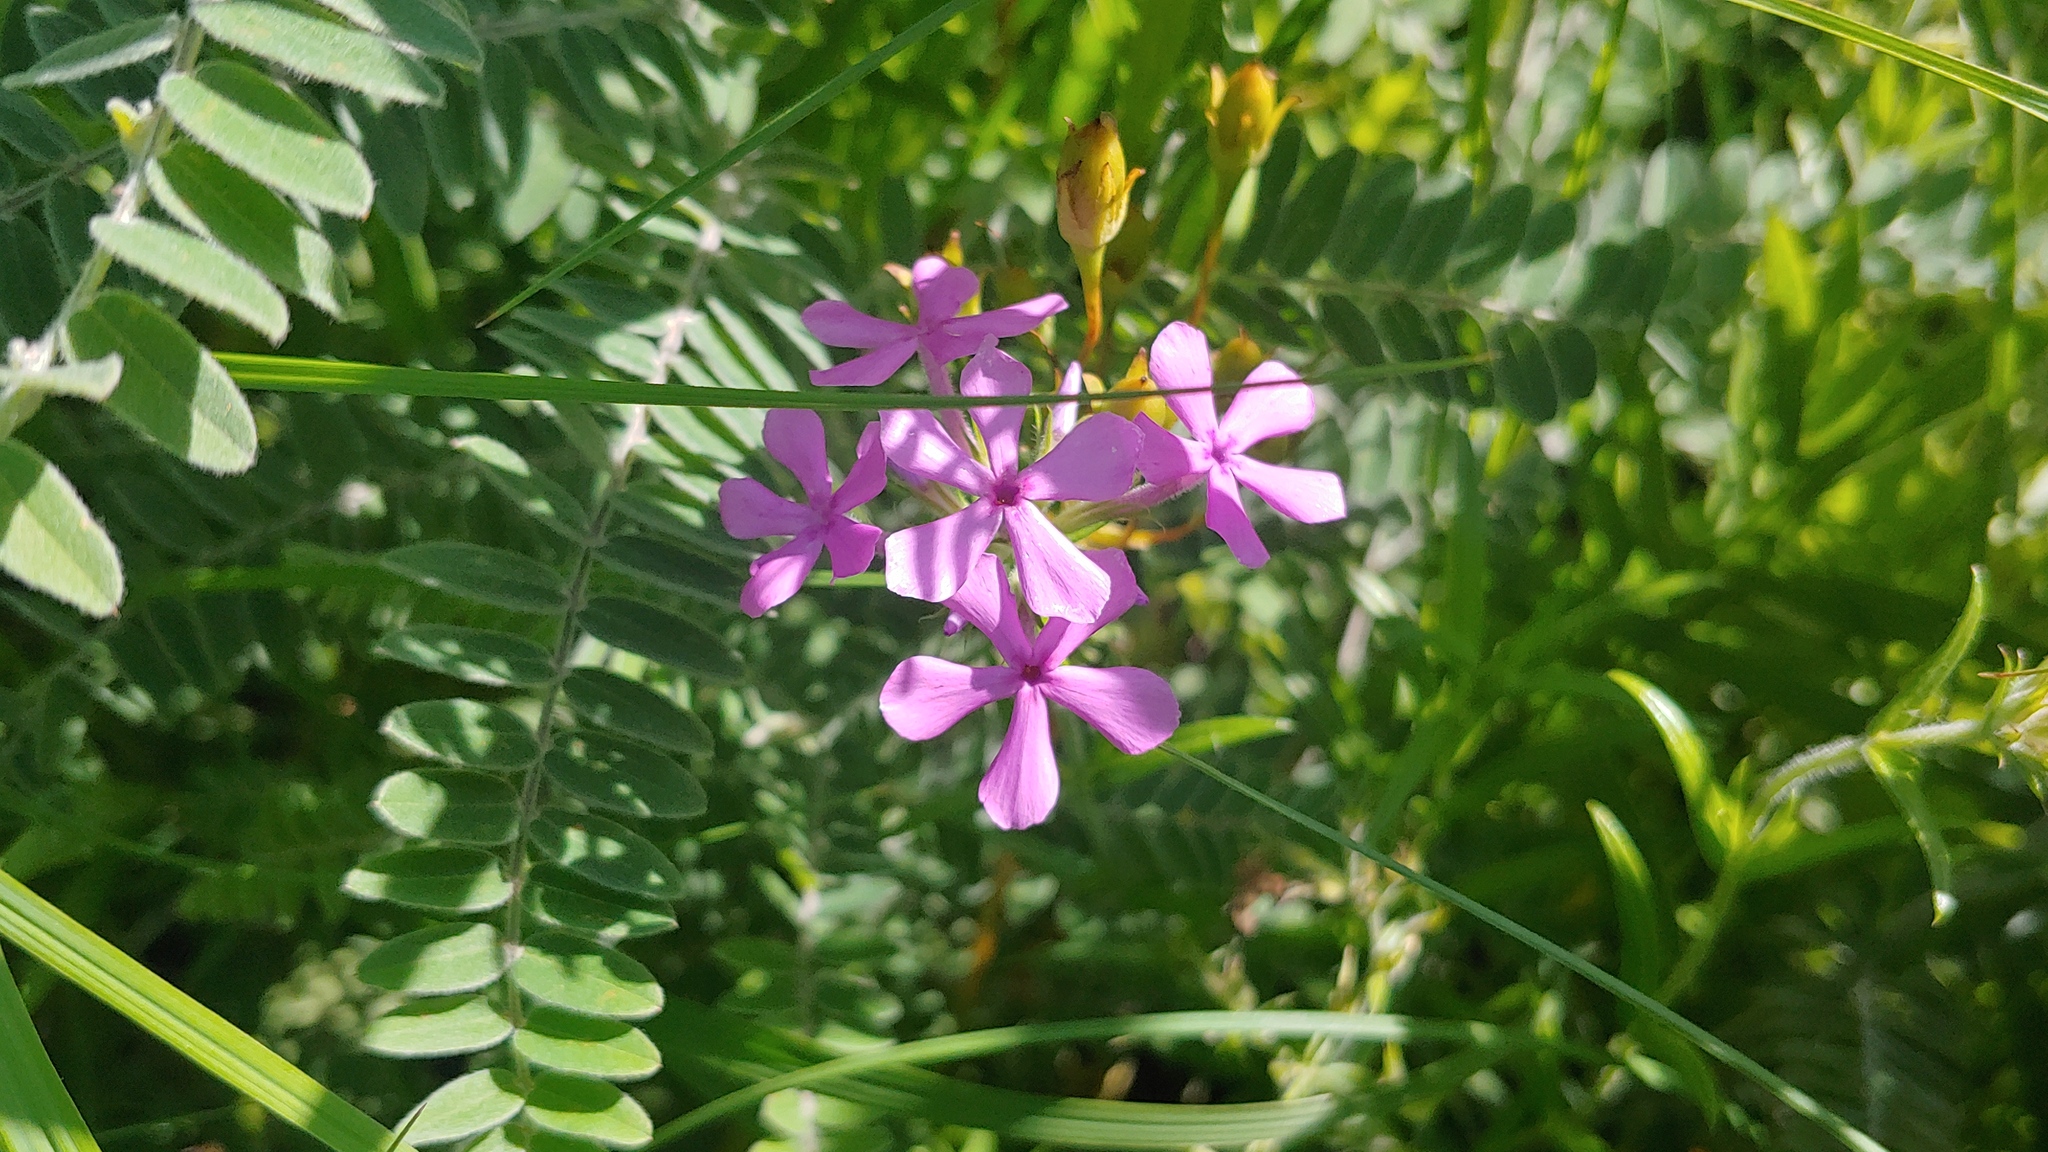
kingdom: Plantae
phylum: Tracheophyta
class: Magnoliopsida
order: Ericales
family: Polemoniaceae
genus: Phlox
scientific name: Phlox pilosa
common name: Prairie phlox
